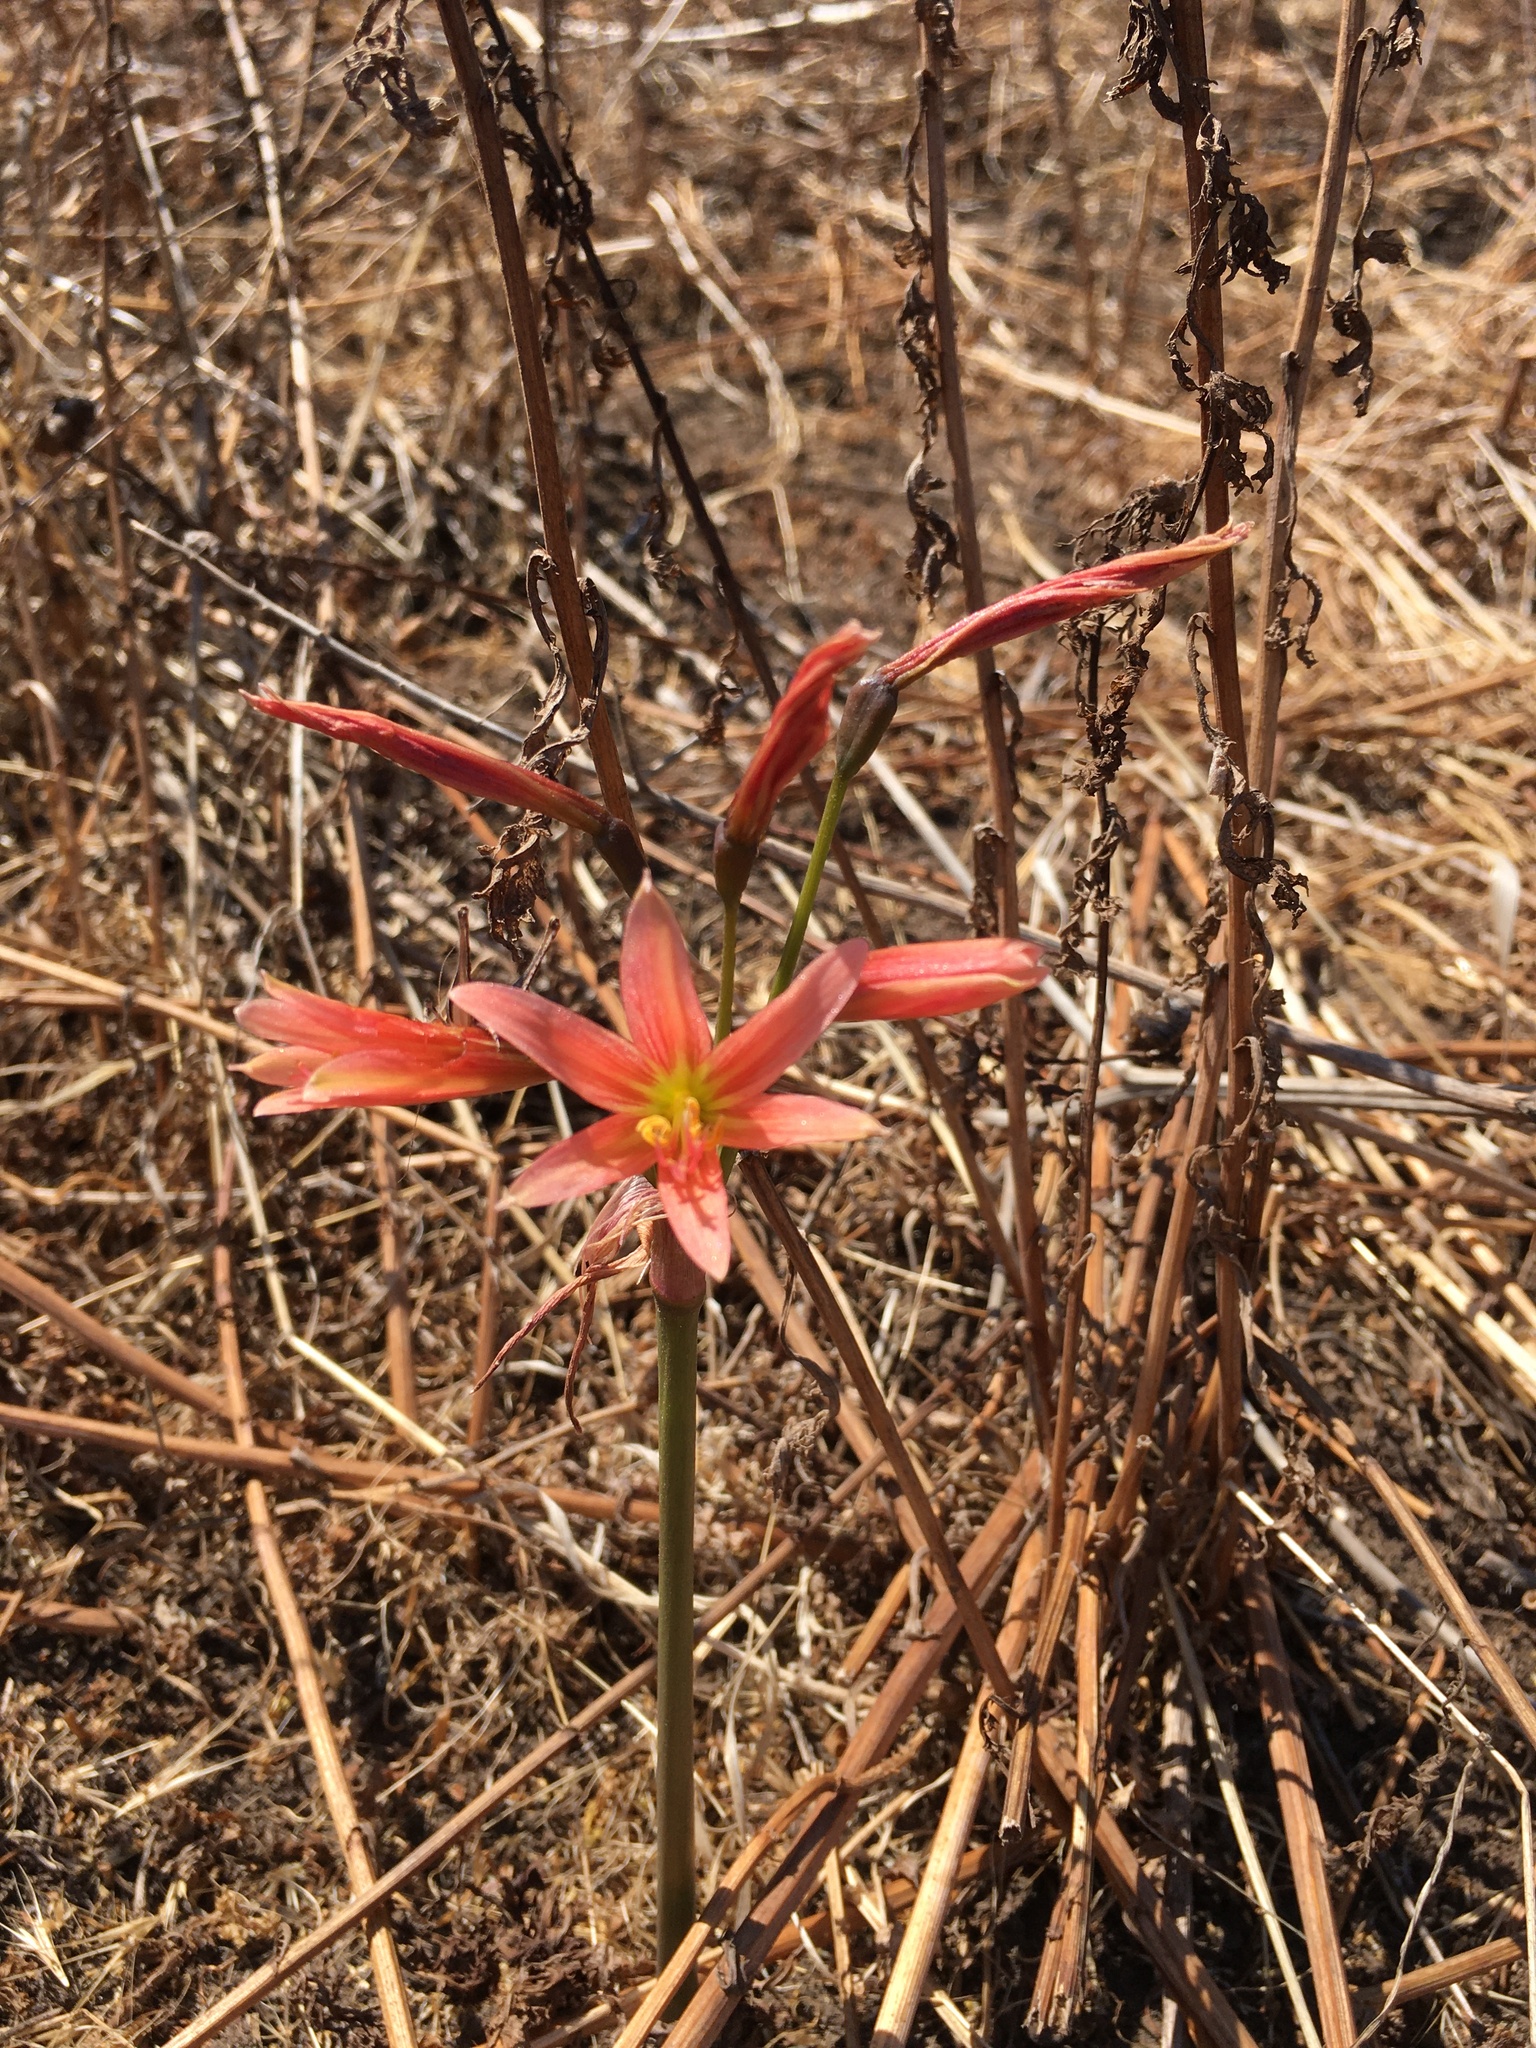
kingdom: Plantae
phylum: Tracheophyta
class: Liliopsida
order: Asparagales
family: Amaryllidaceae
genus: Zephyranthes
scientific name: Zephyranthes advena
